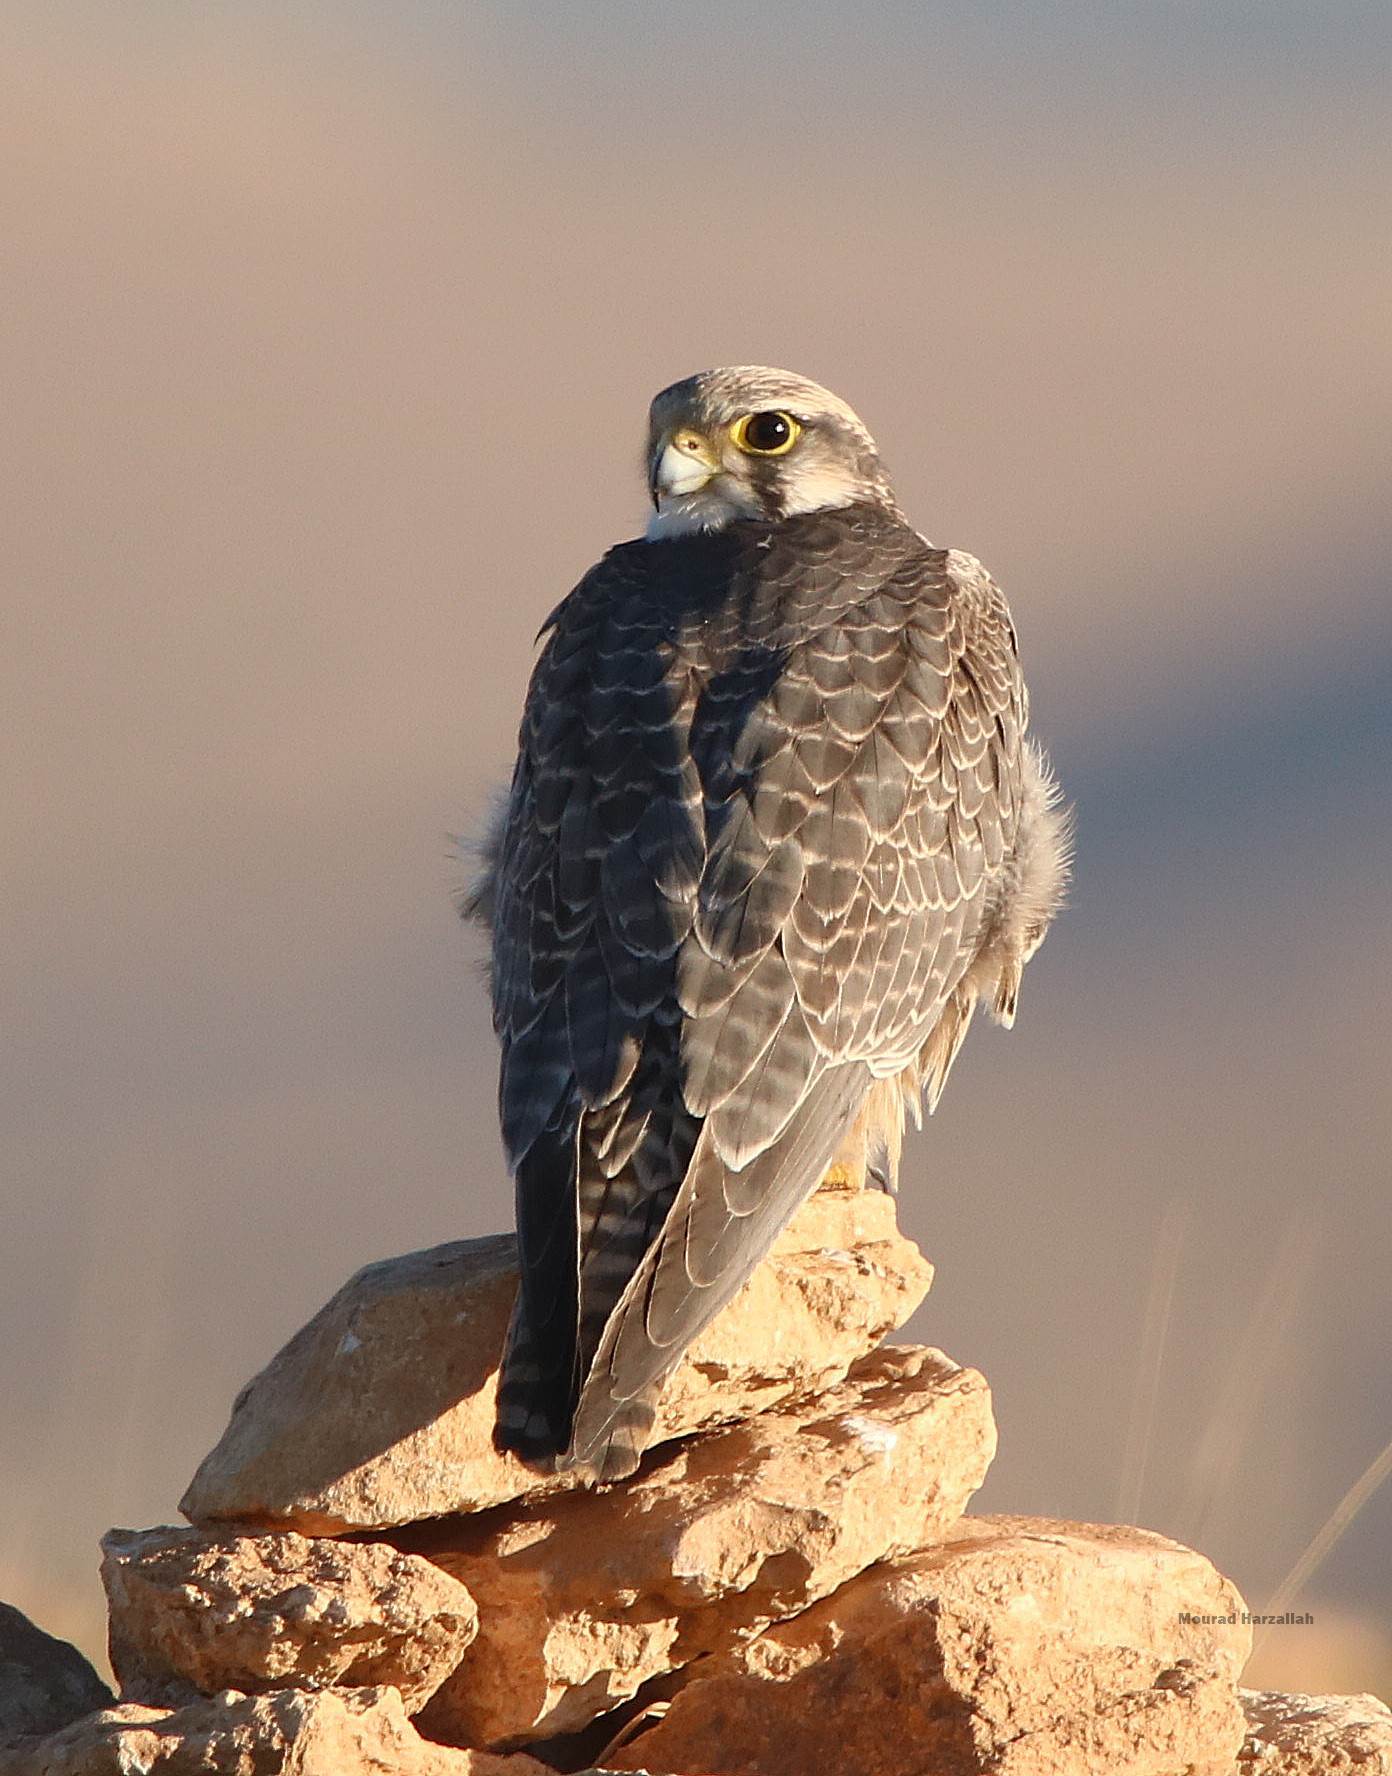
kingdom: Animalia
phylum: Chordata
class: Aves
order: Falconiformes
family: Falconidae
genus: Falco
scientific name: Falco biarmicus
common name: Lanner falcon
